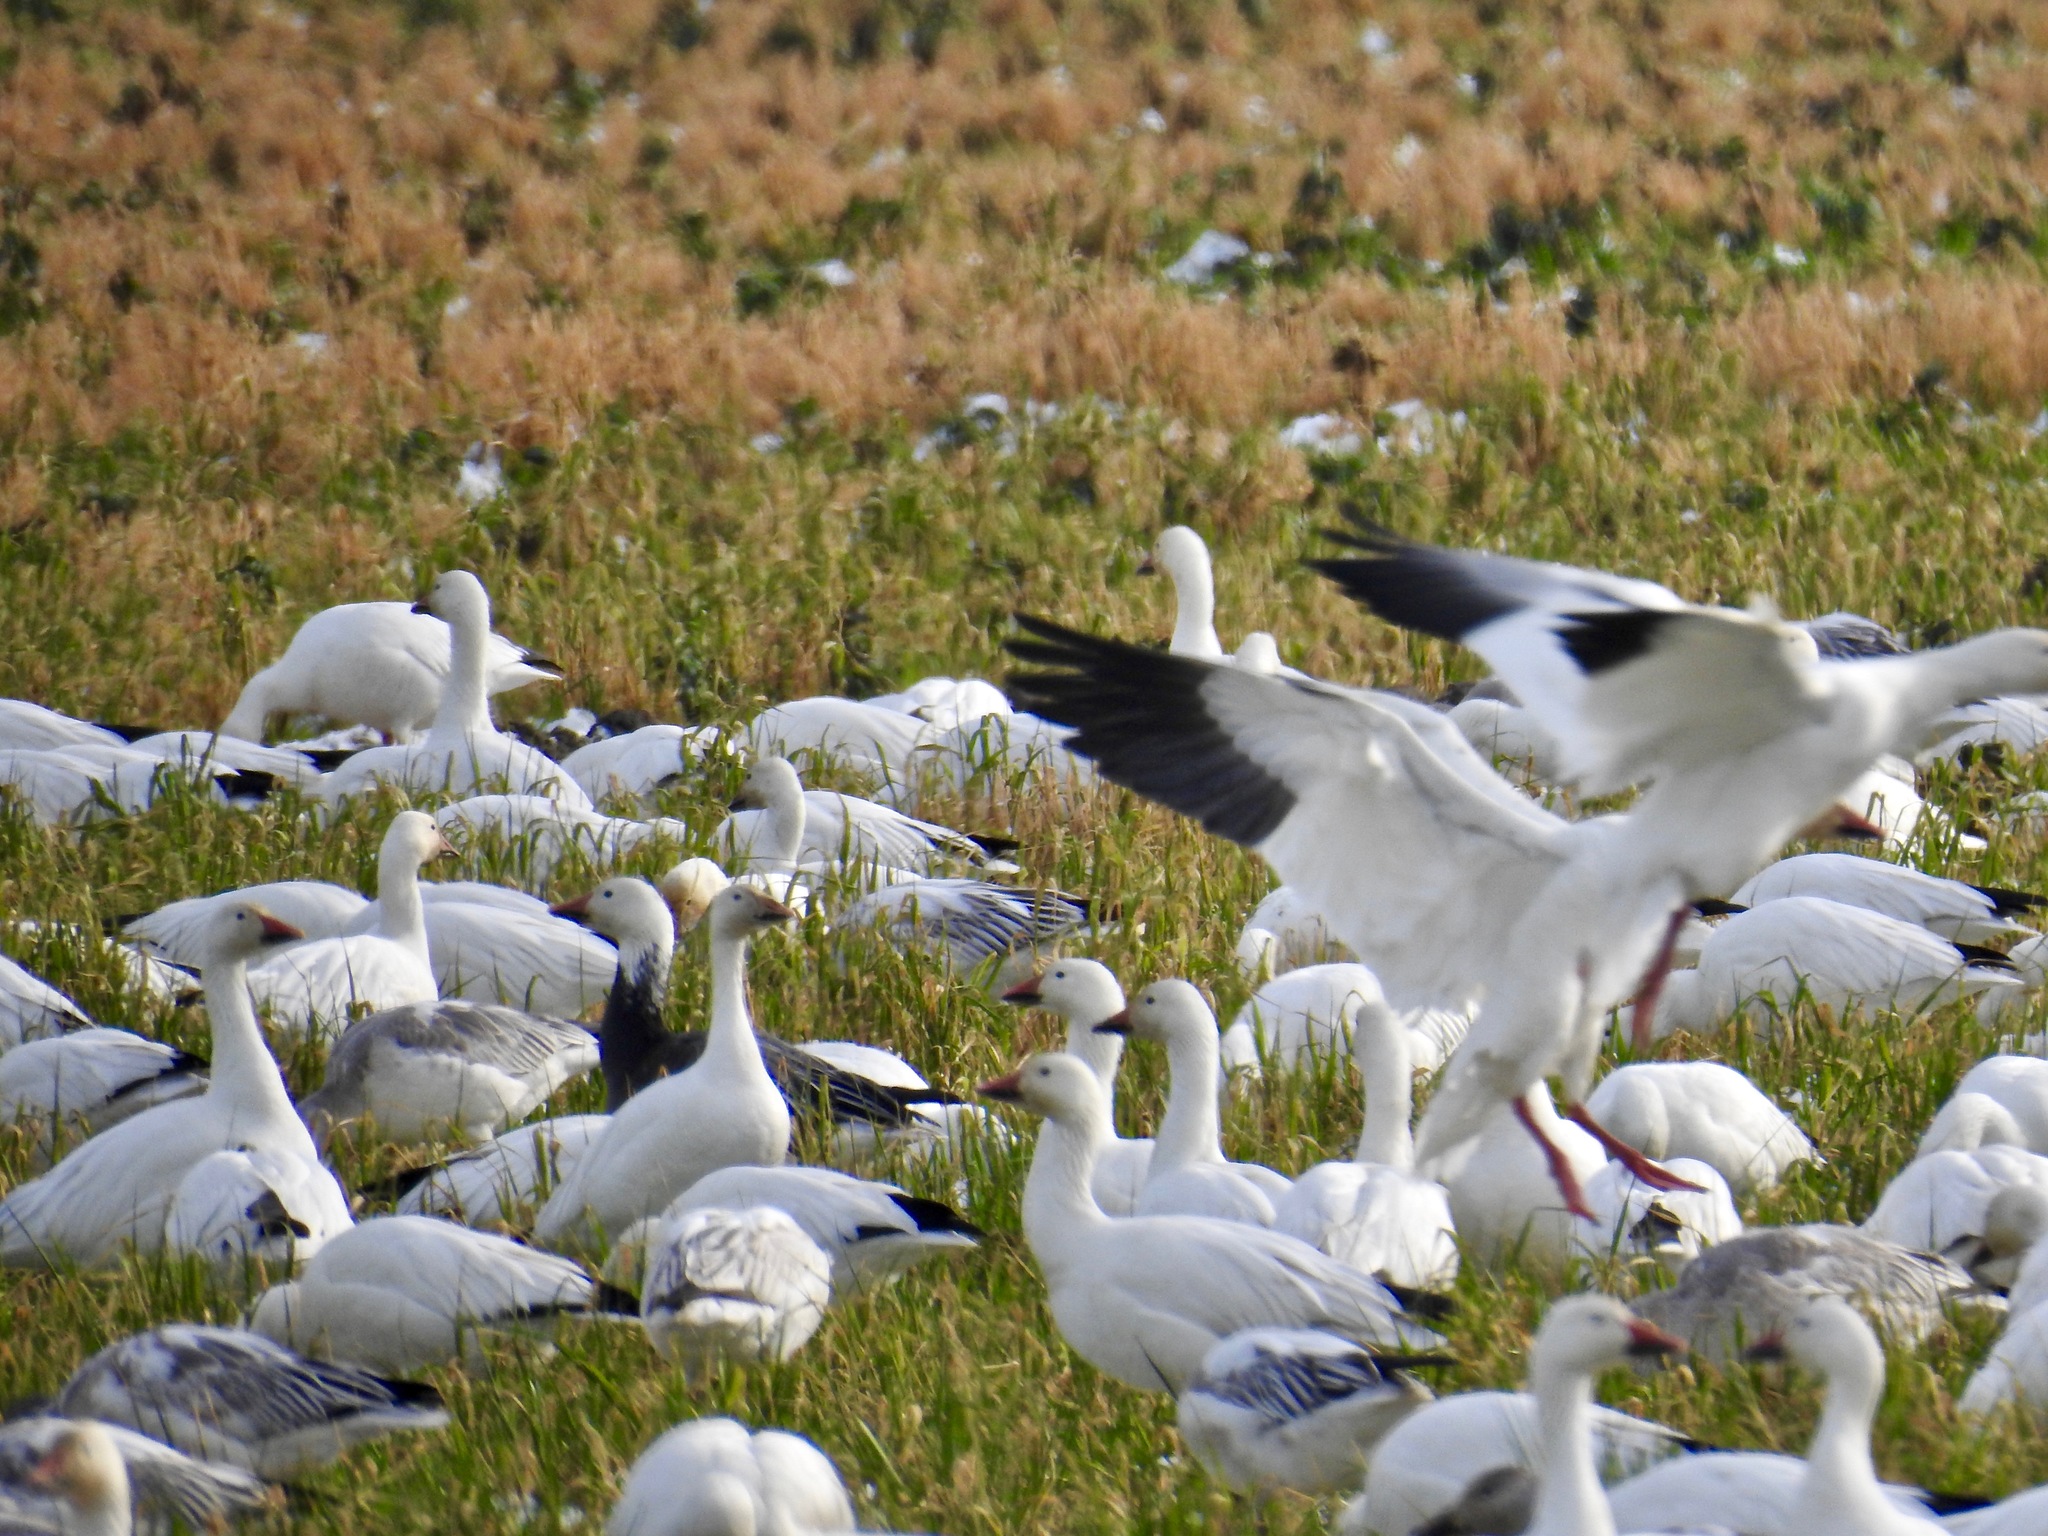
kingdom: Animalia
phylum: Chordata
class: Aves
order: Anseriformes
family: Anatidae
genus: Anser
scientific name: Anser caerulescens
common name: Snow goose
